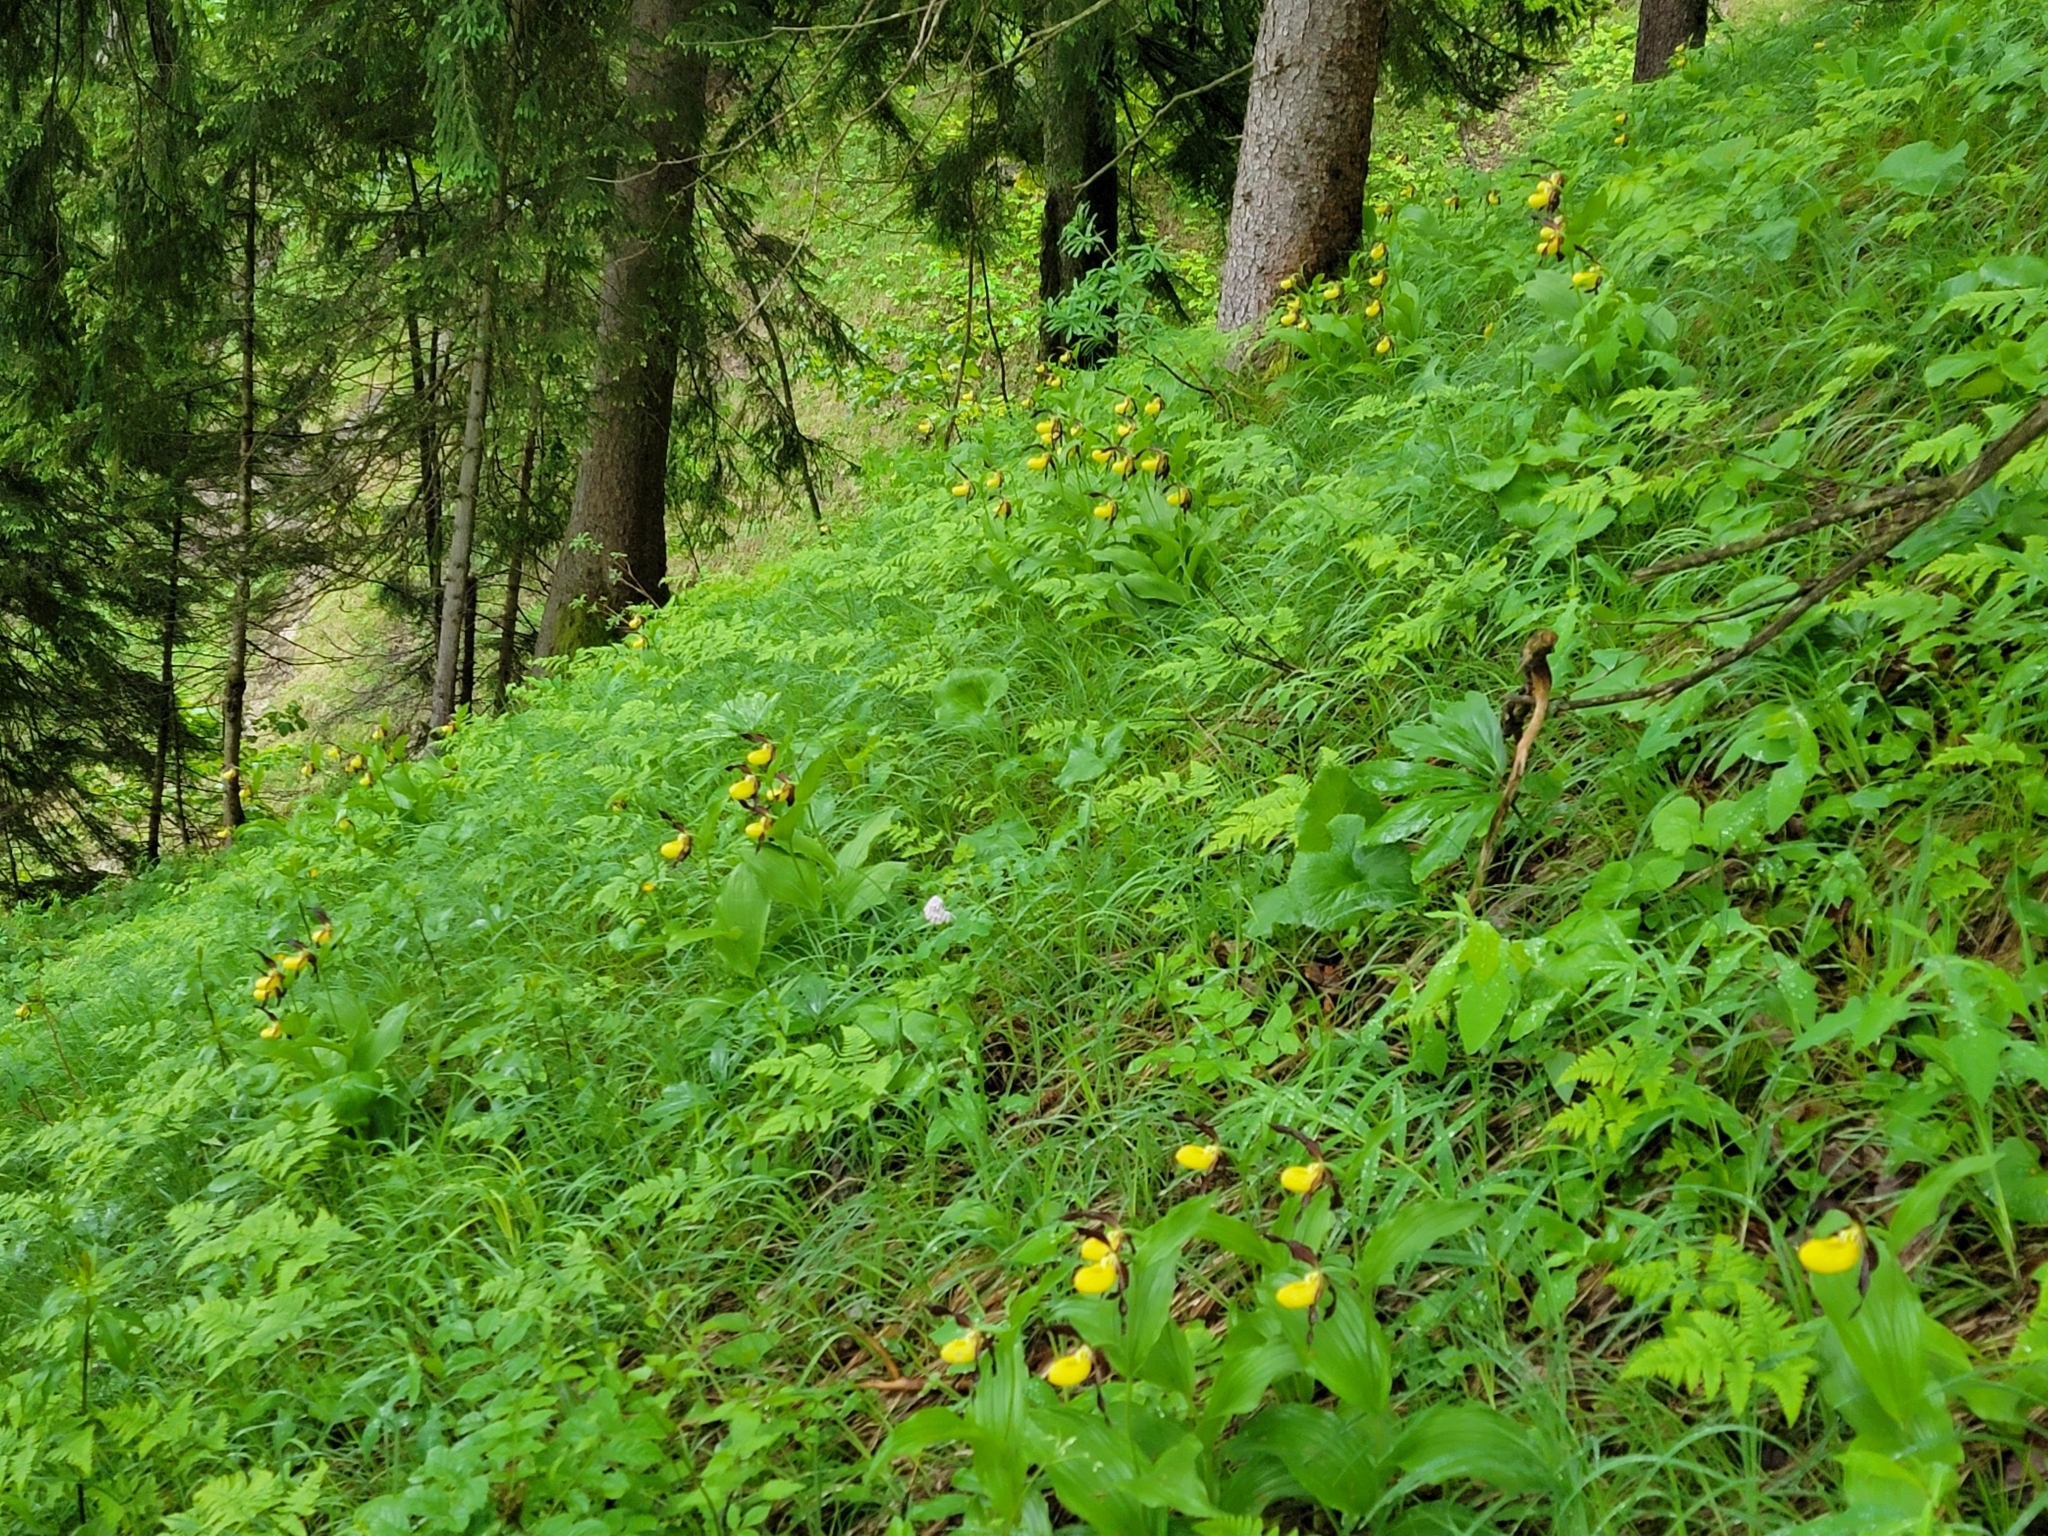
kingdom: Plantae
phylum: Tracheophyta
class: Liliopsida
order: Asparagales
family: Orchidaceae
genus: Cypripedium
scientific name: Cypripedium calceolus
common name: Lady's-slipper
